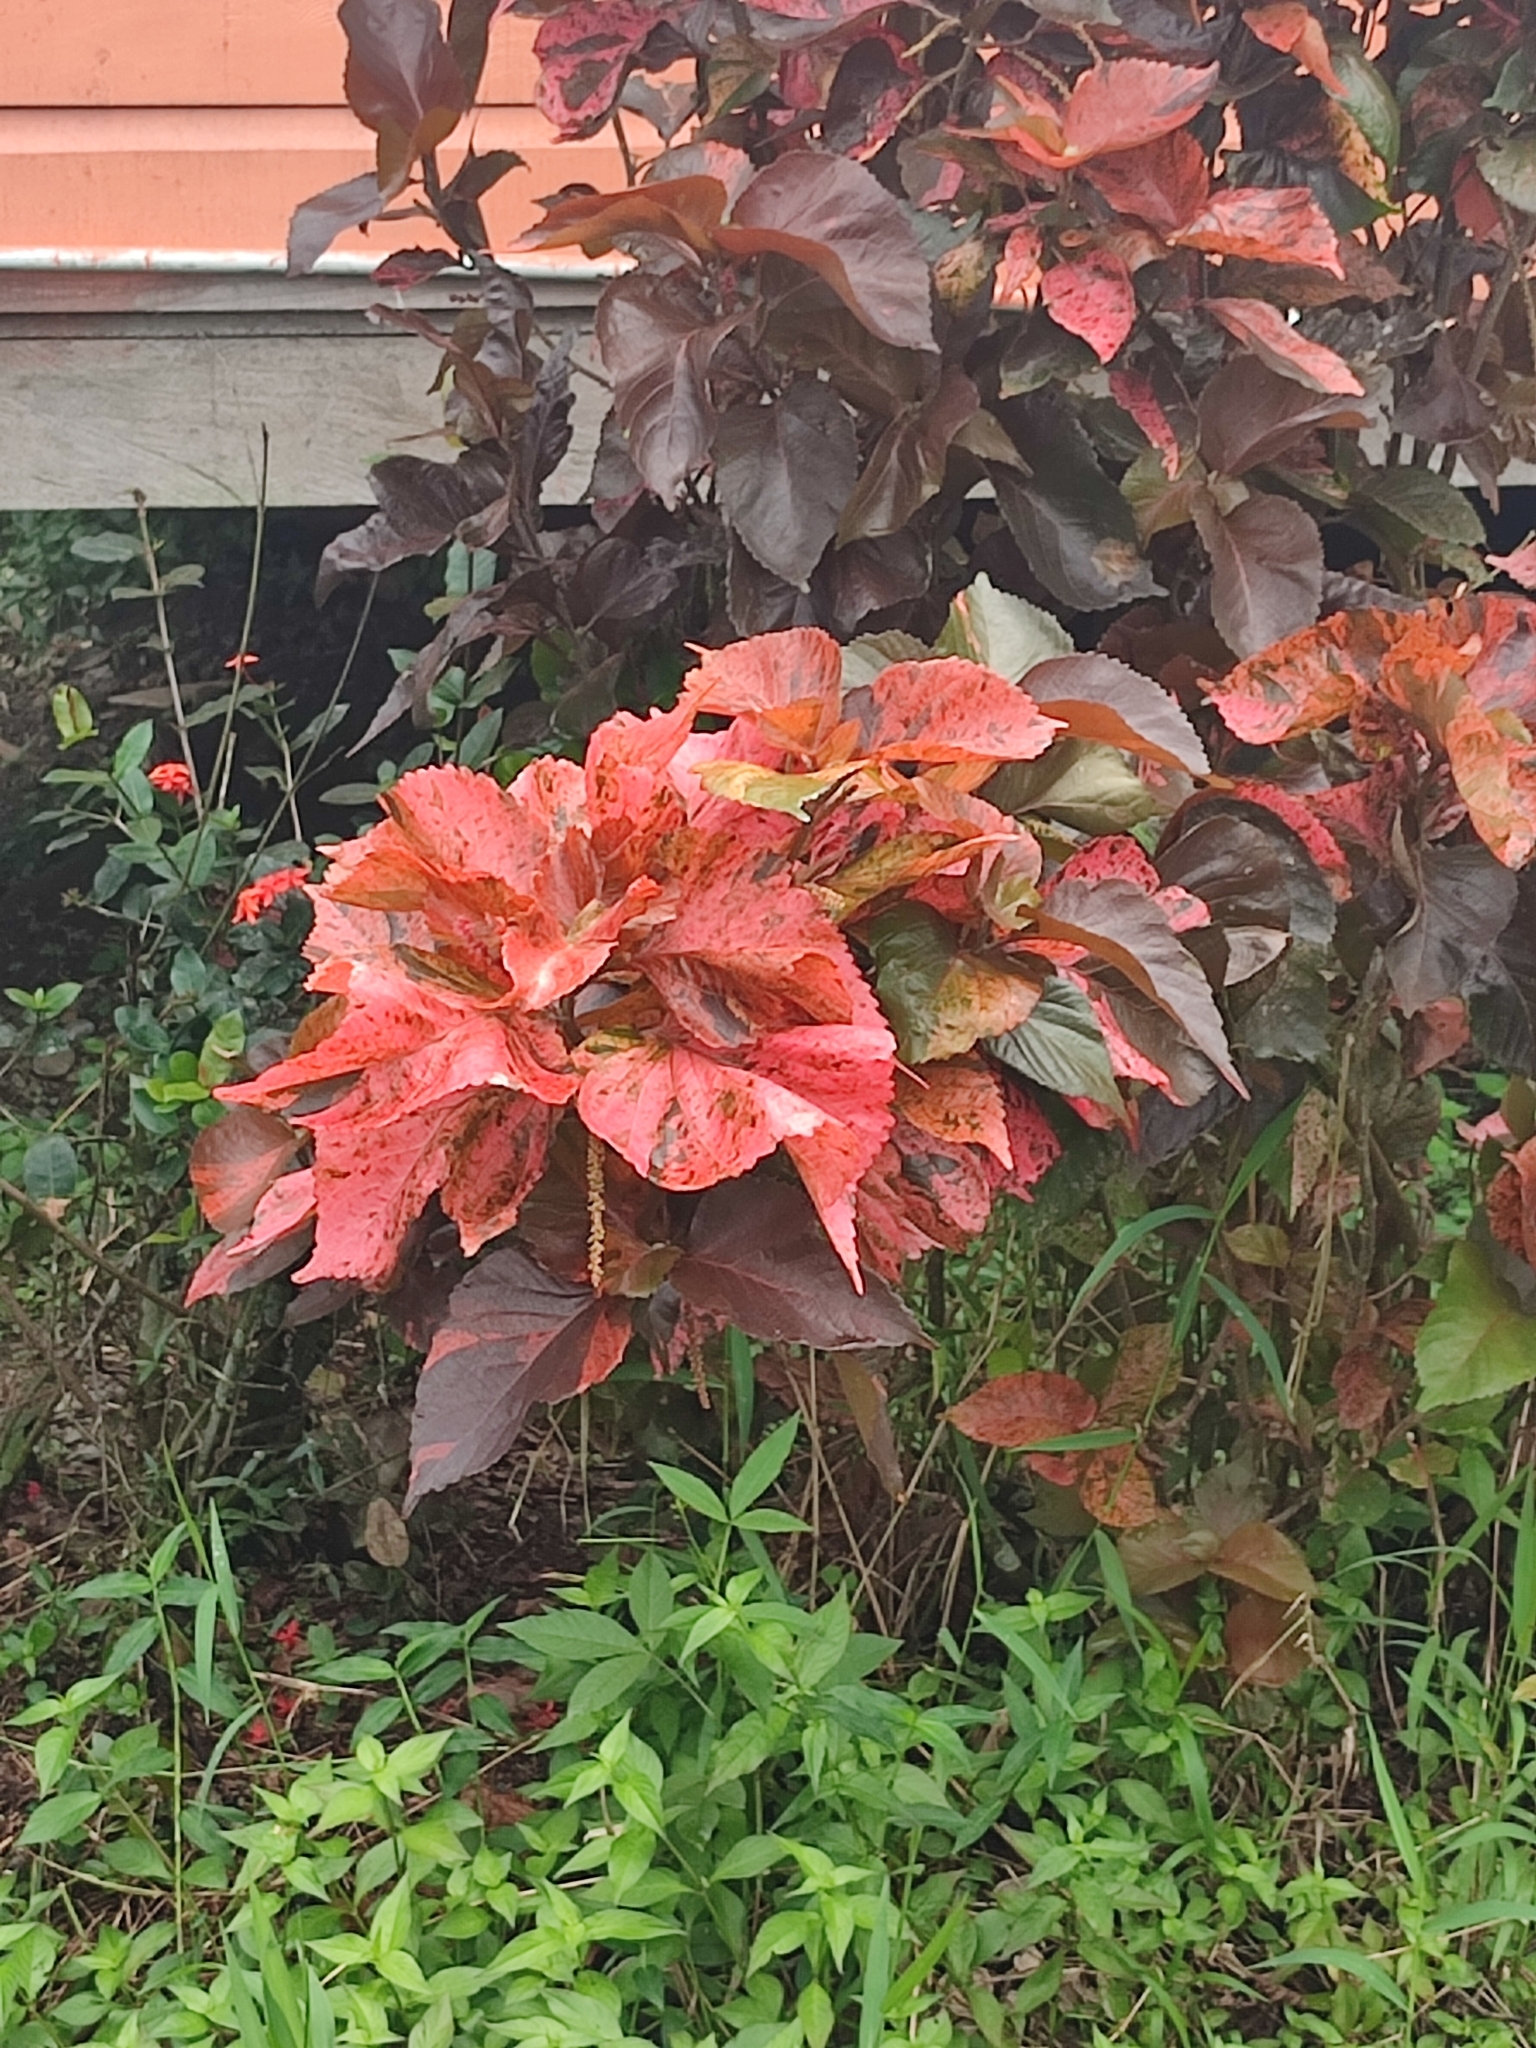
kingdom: Plantae
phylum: Tracheophyta
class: Magnoliopsida
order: Malpighiales
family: Euphorbiaceae
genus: Acalypha
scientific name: Acalypha wilkesiana
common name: Jacob's coat
